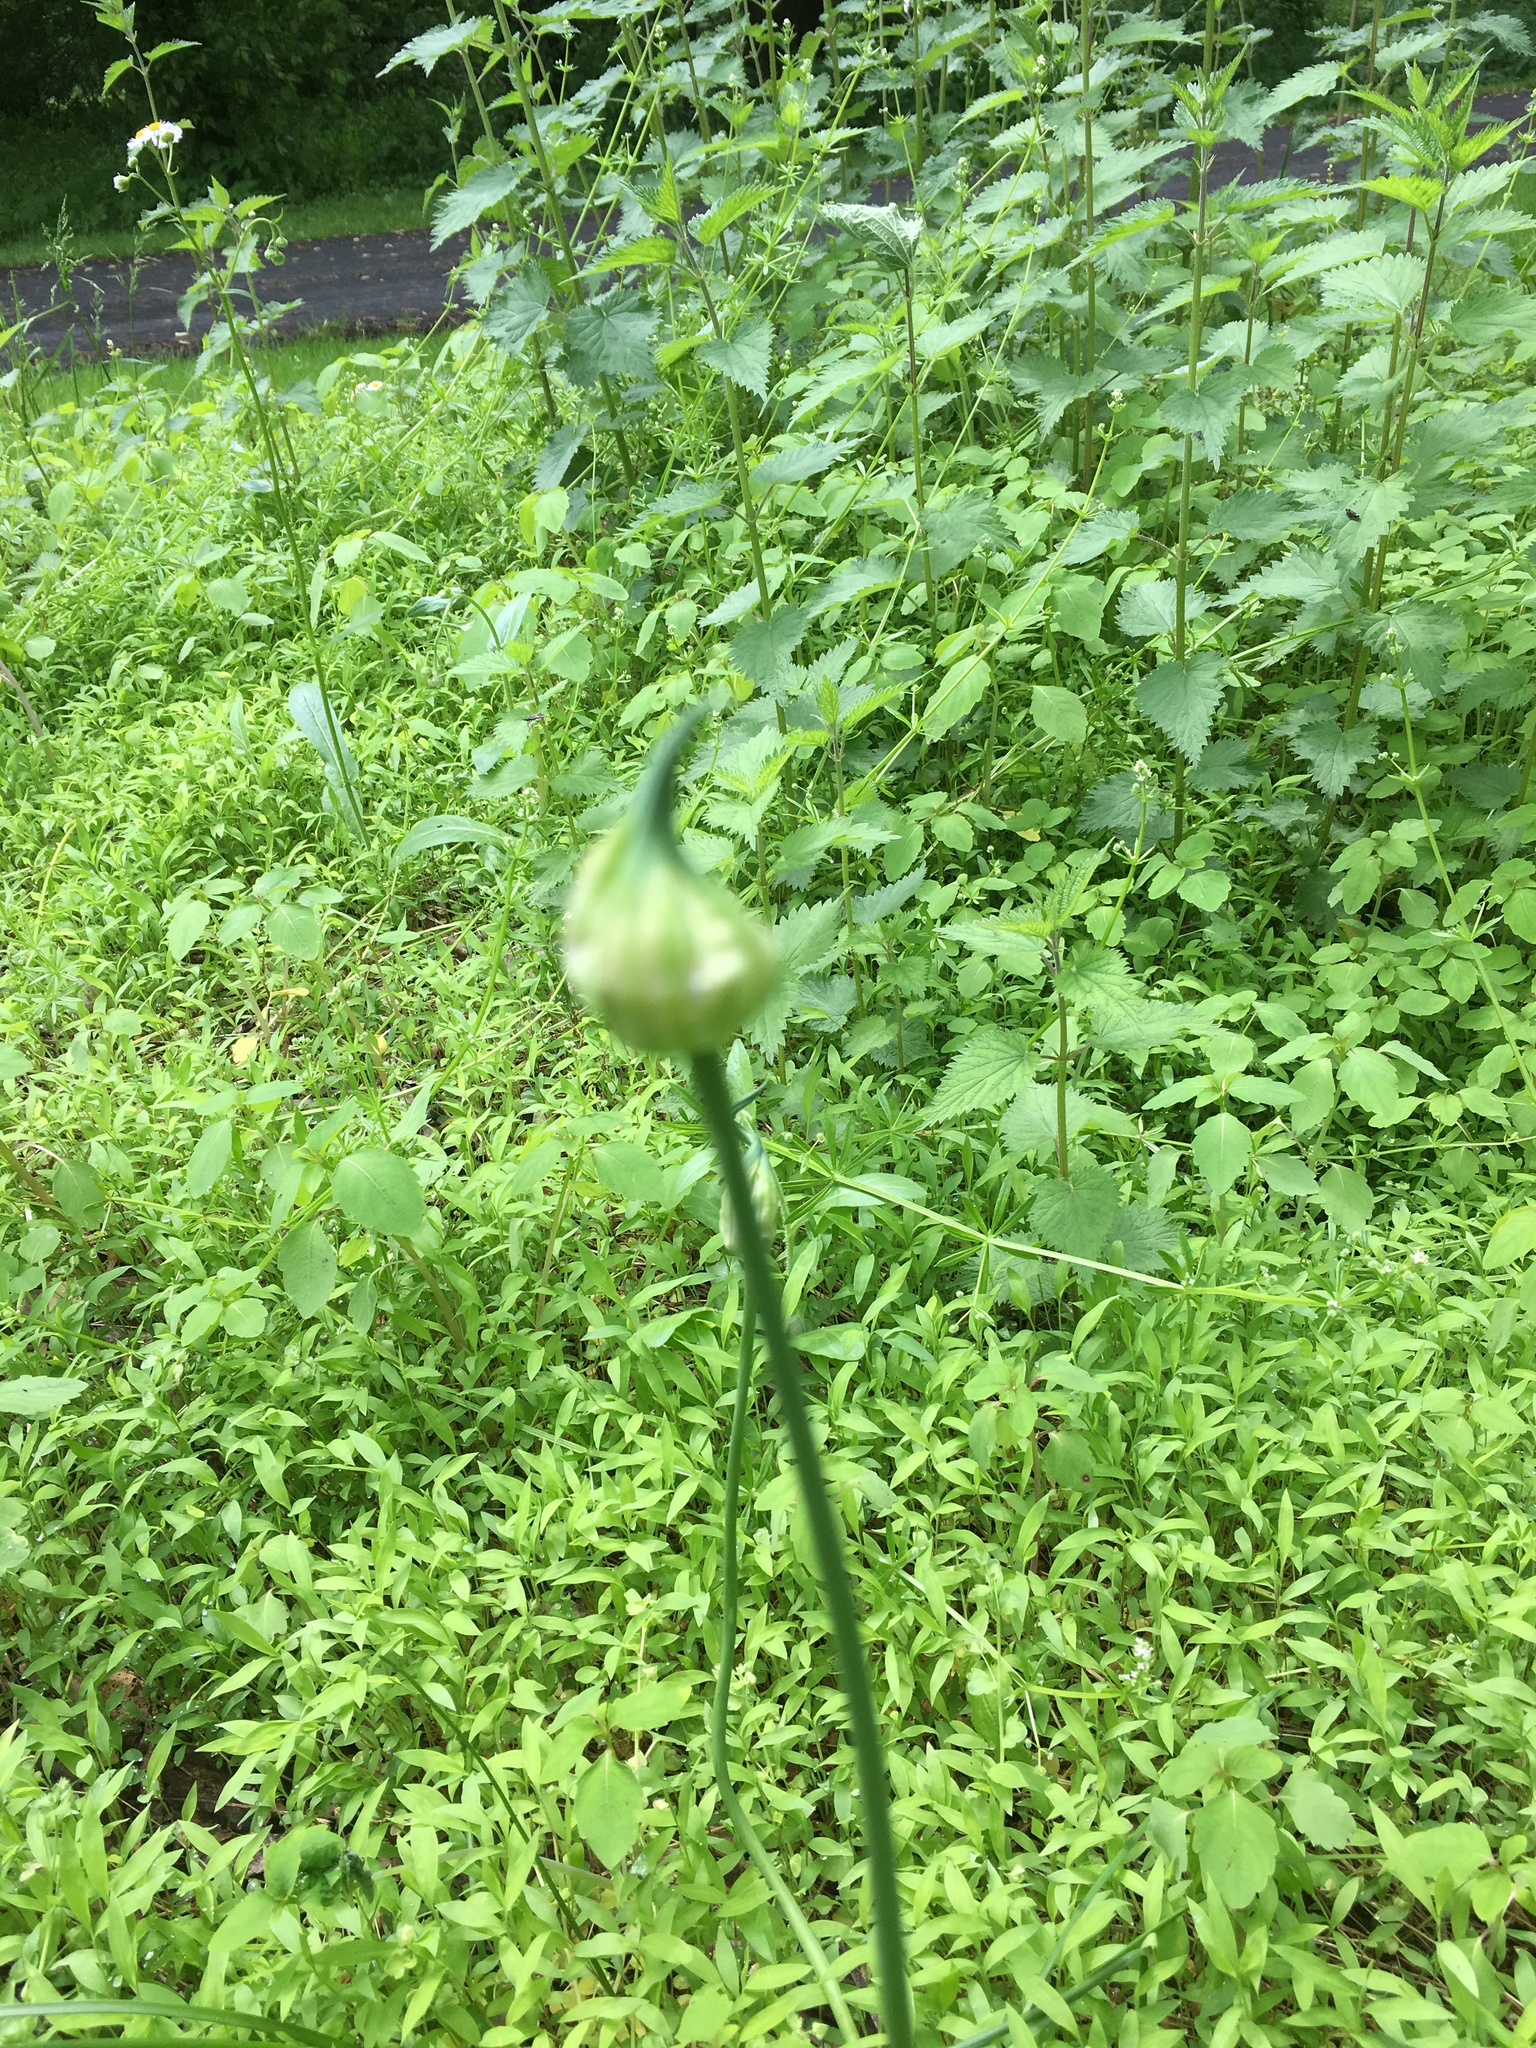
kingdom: Plantae
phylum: Tracheophyta
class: Liliopsida
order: Asparagales
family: Amaryllidaceae
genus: Allium
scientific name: Allium vineale
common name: Crow garlic
